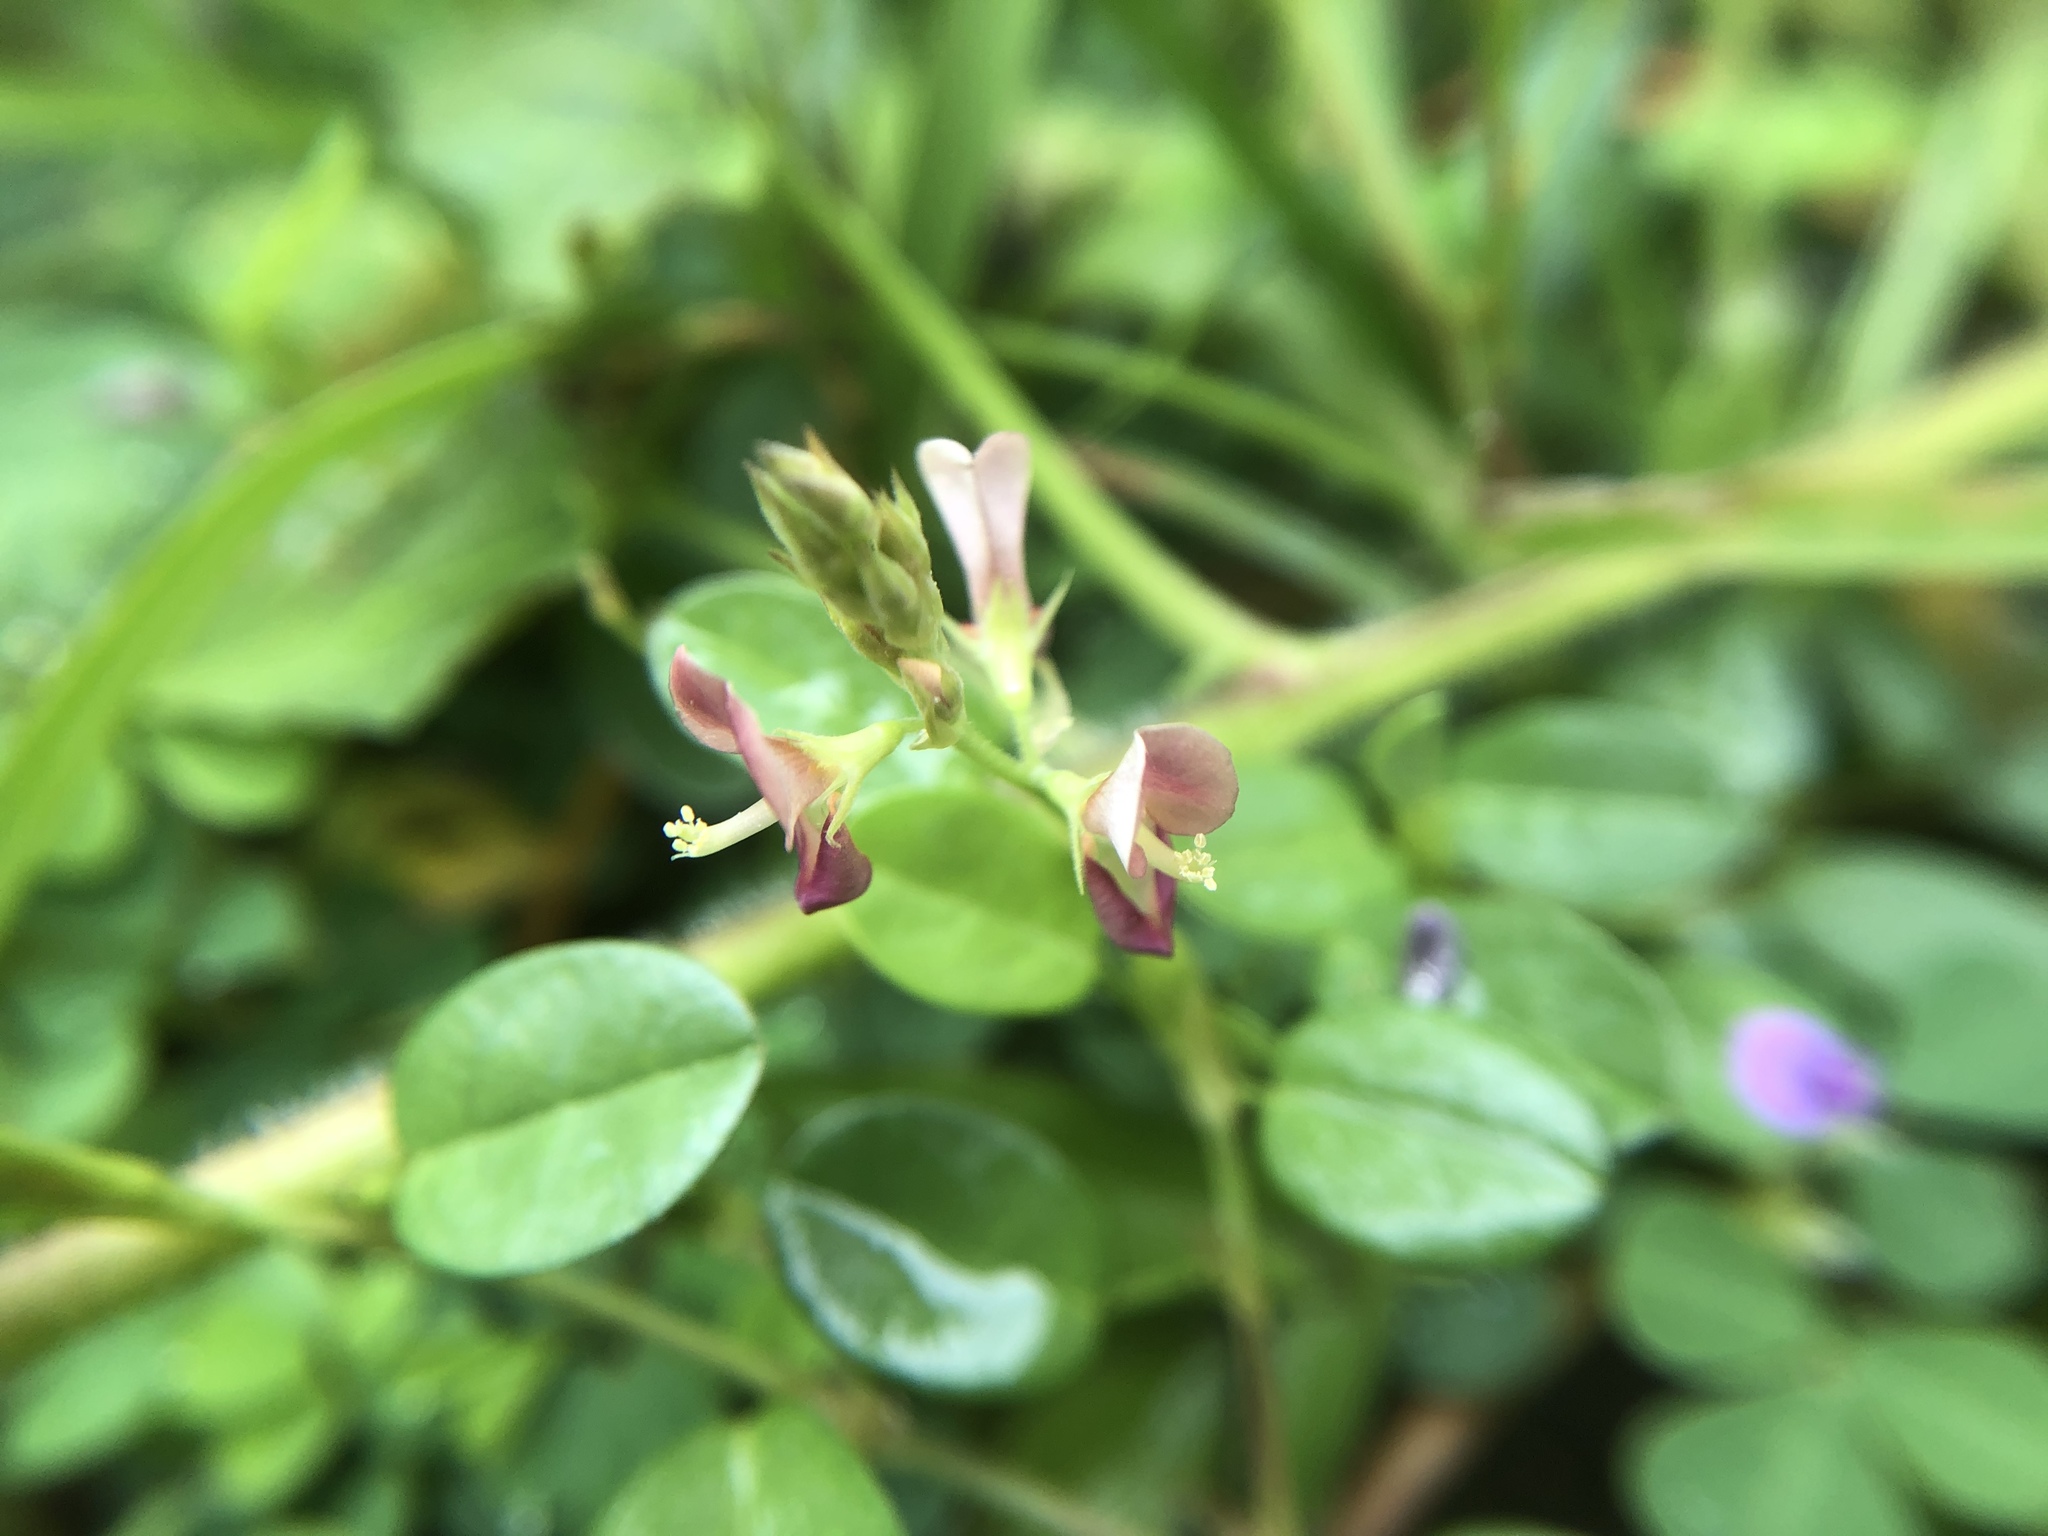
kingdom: Plantae
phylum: Tracheophyta
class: Magnoliopsida
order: Fabales
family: Fabaceae
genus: Grona
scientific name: Grona triflora
